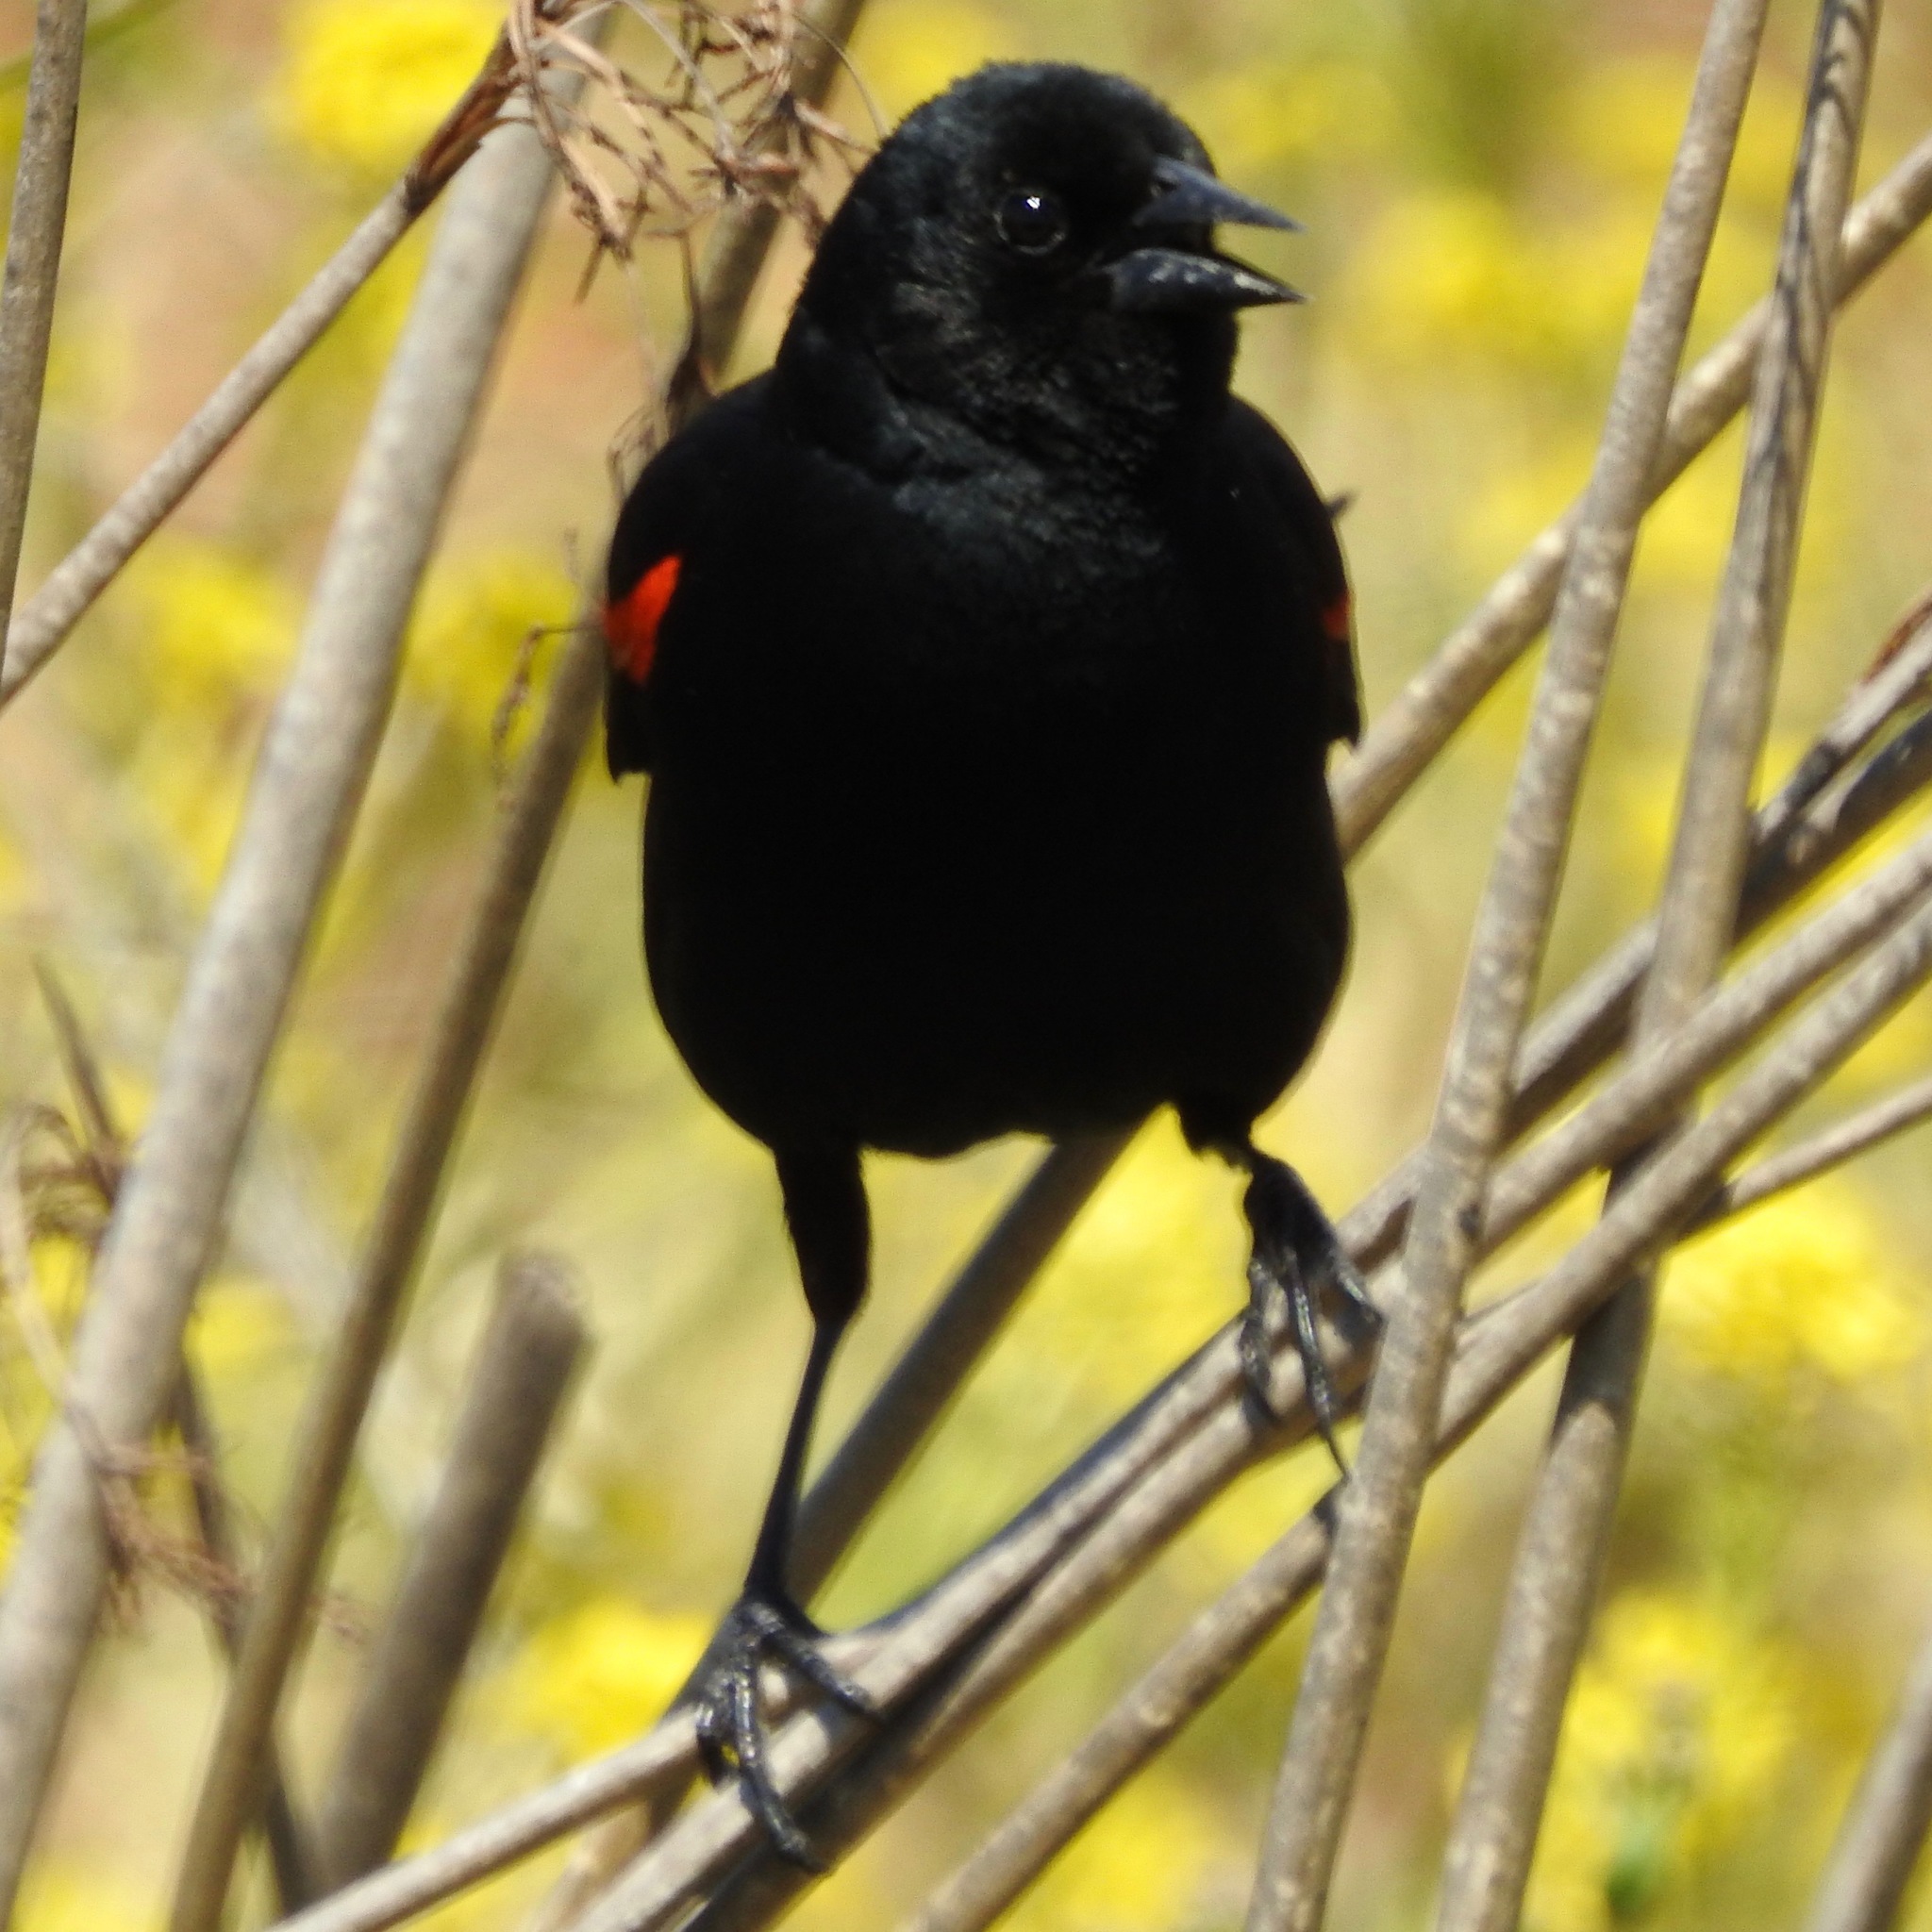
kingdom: Animalia
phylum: Chordata
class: Aves
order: Passeriformes
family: Icteridae
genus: Agelaius
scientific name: Agelaius phoeniceus
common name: Red-winged blackbird
